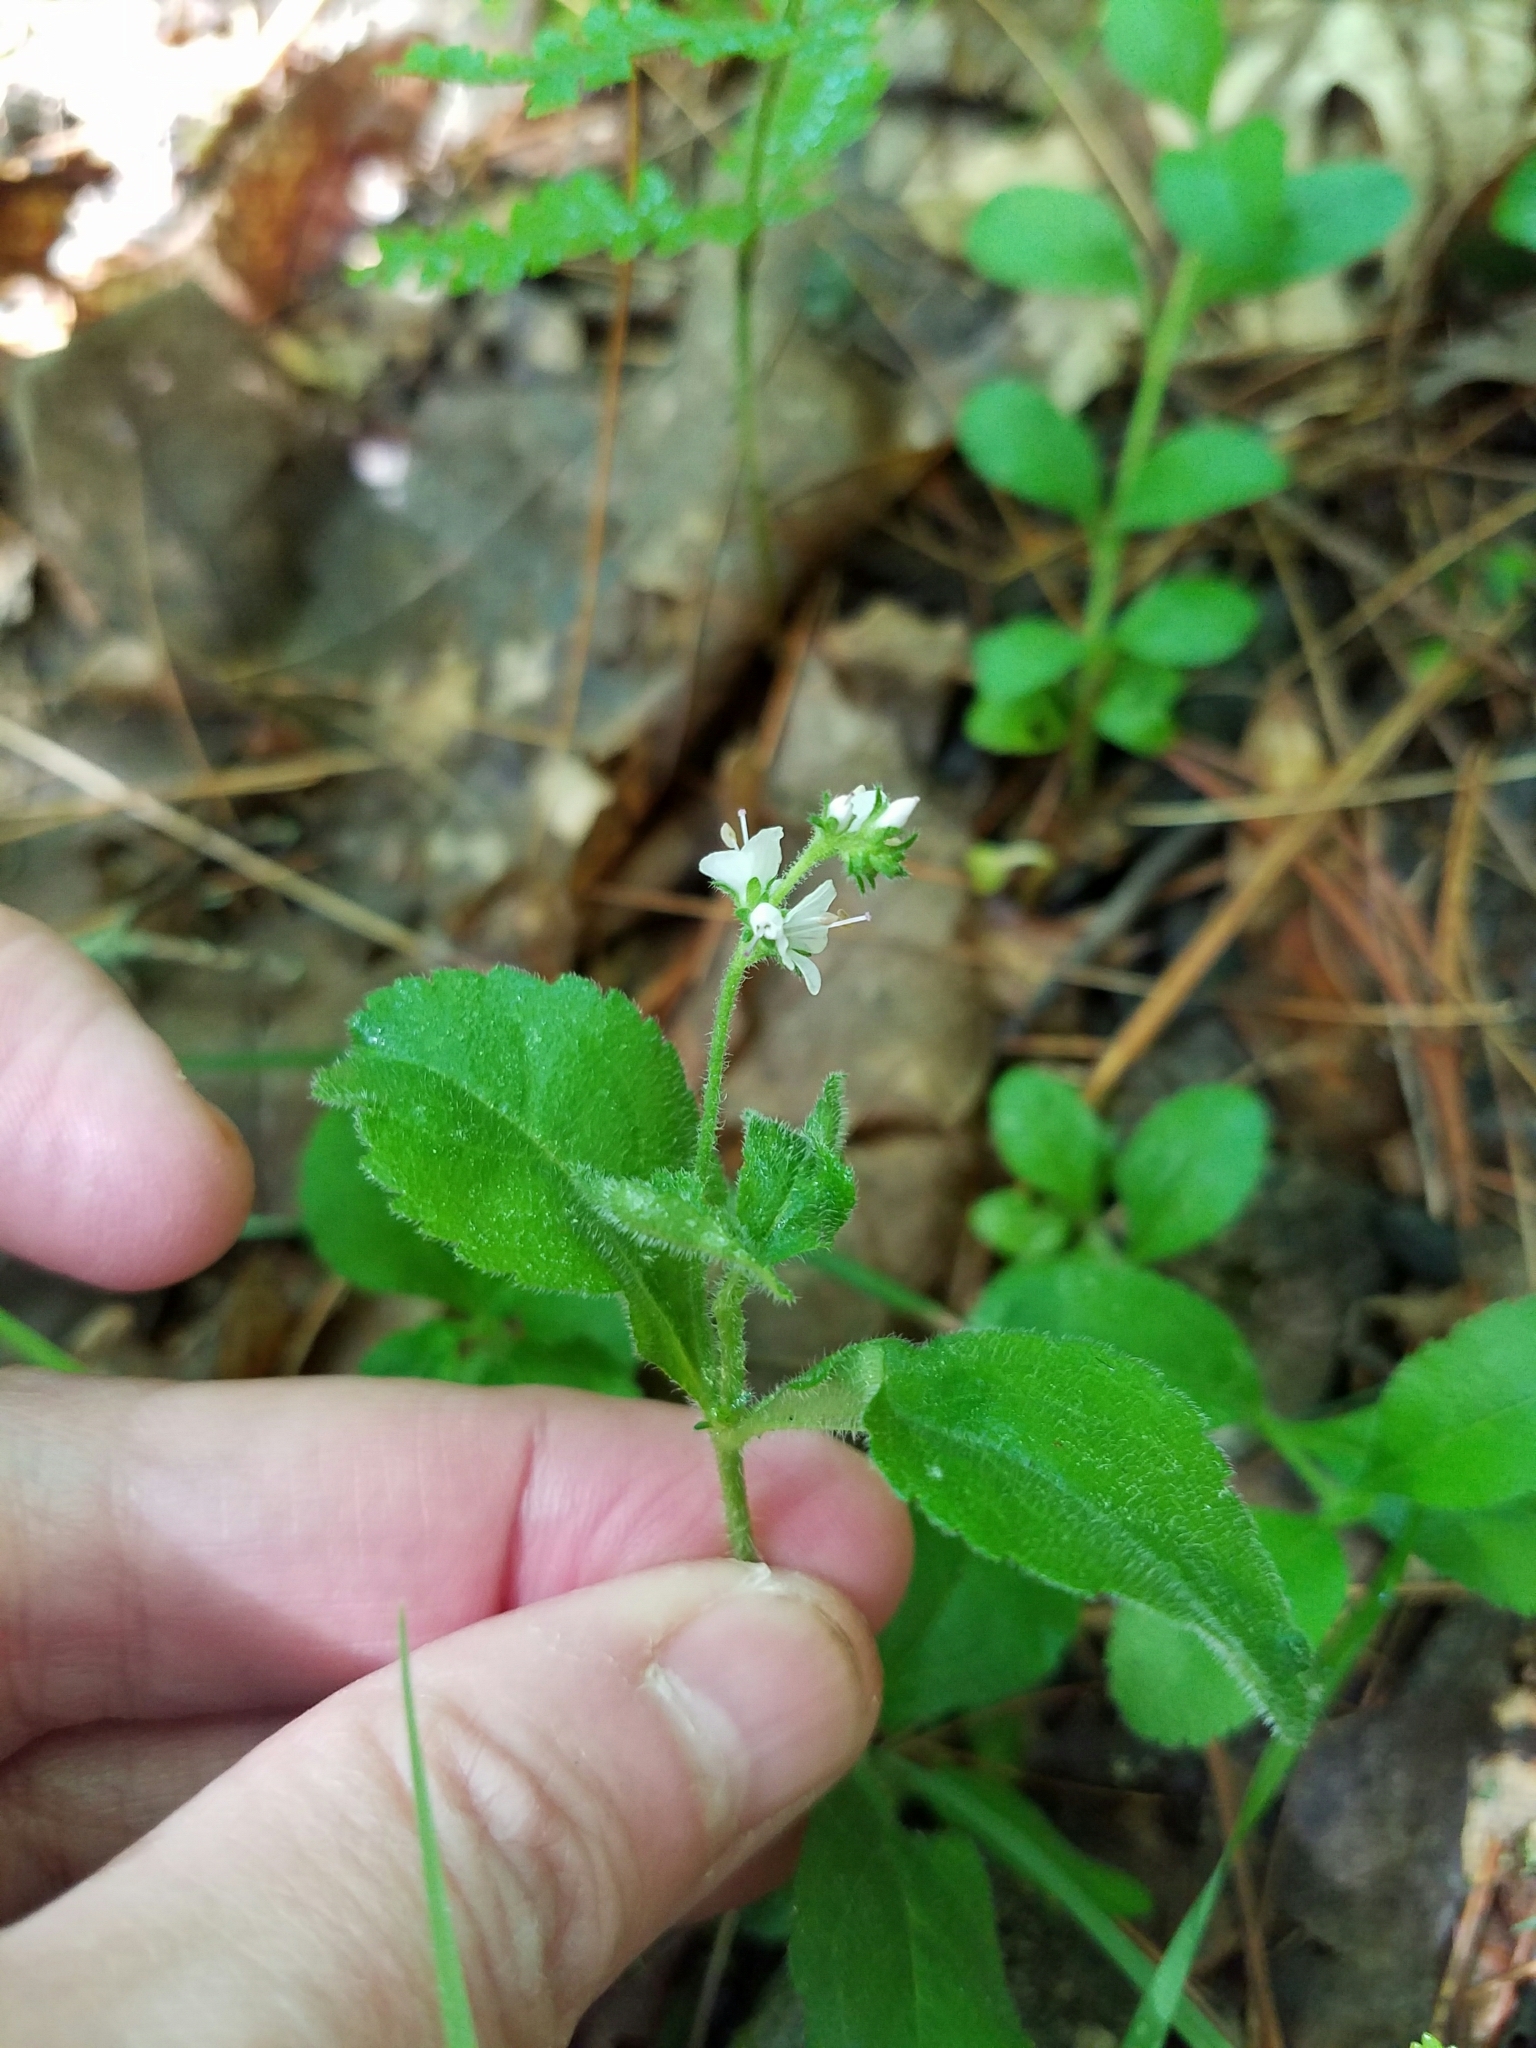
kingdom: Plantae
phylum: Tracheophyta
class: Magnoliopsida
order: Lamiales
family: Plantaginaceae
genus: Veronica
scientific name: Veronica officinalis
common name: Common speedwell
